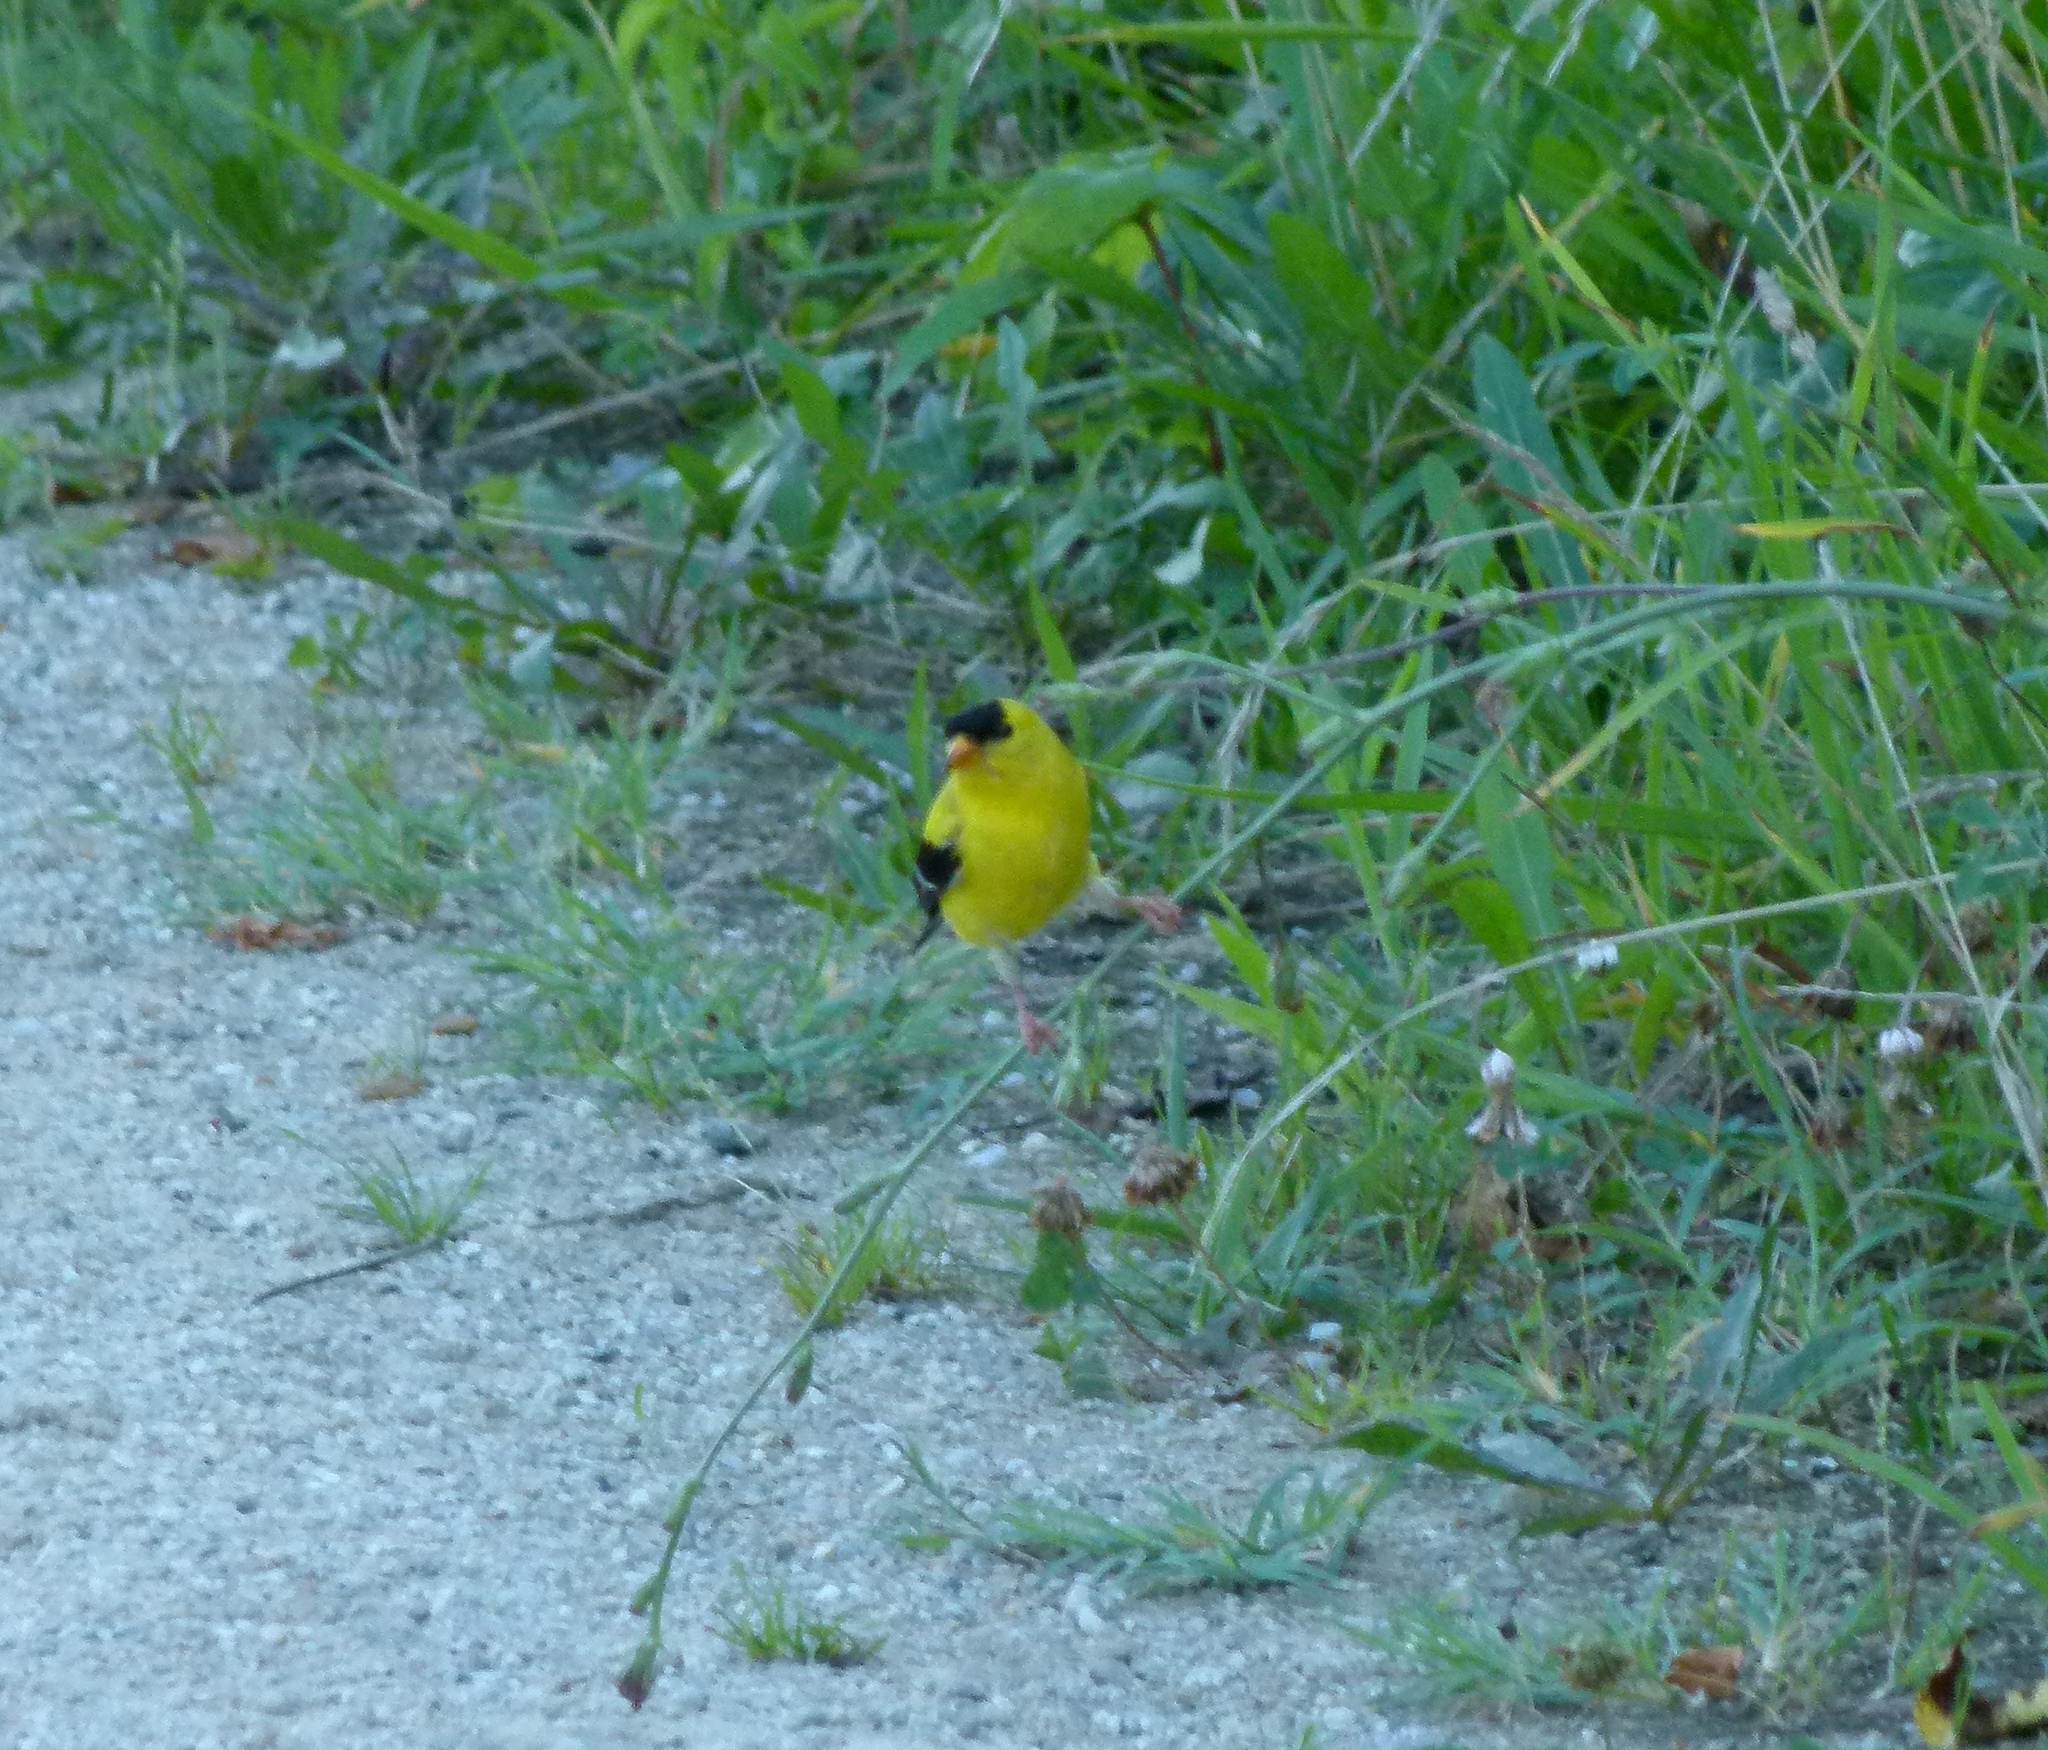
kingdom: Animalia
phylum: Chordata
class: Aves
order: Passeriformes
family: Fringillidae
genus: Spinus
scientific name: Spinus tristis
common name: American goldfinch
